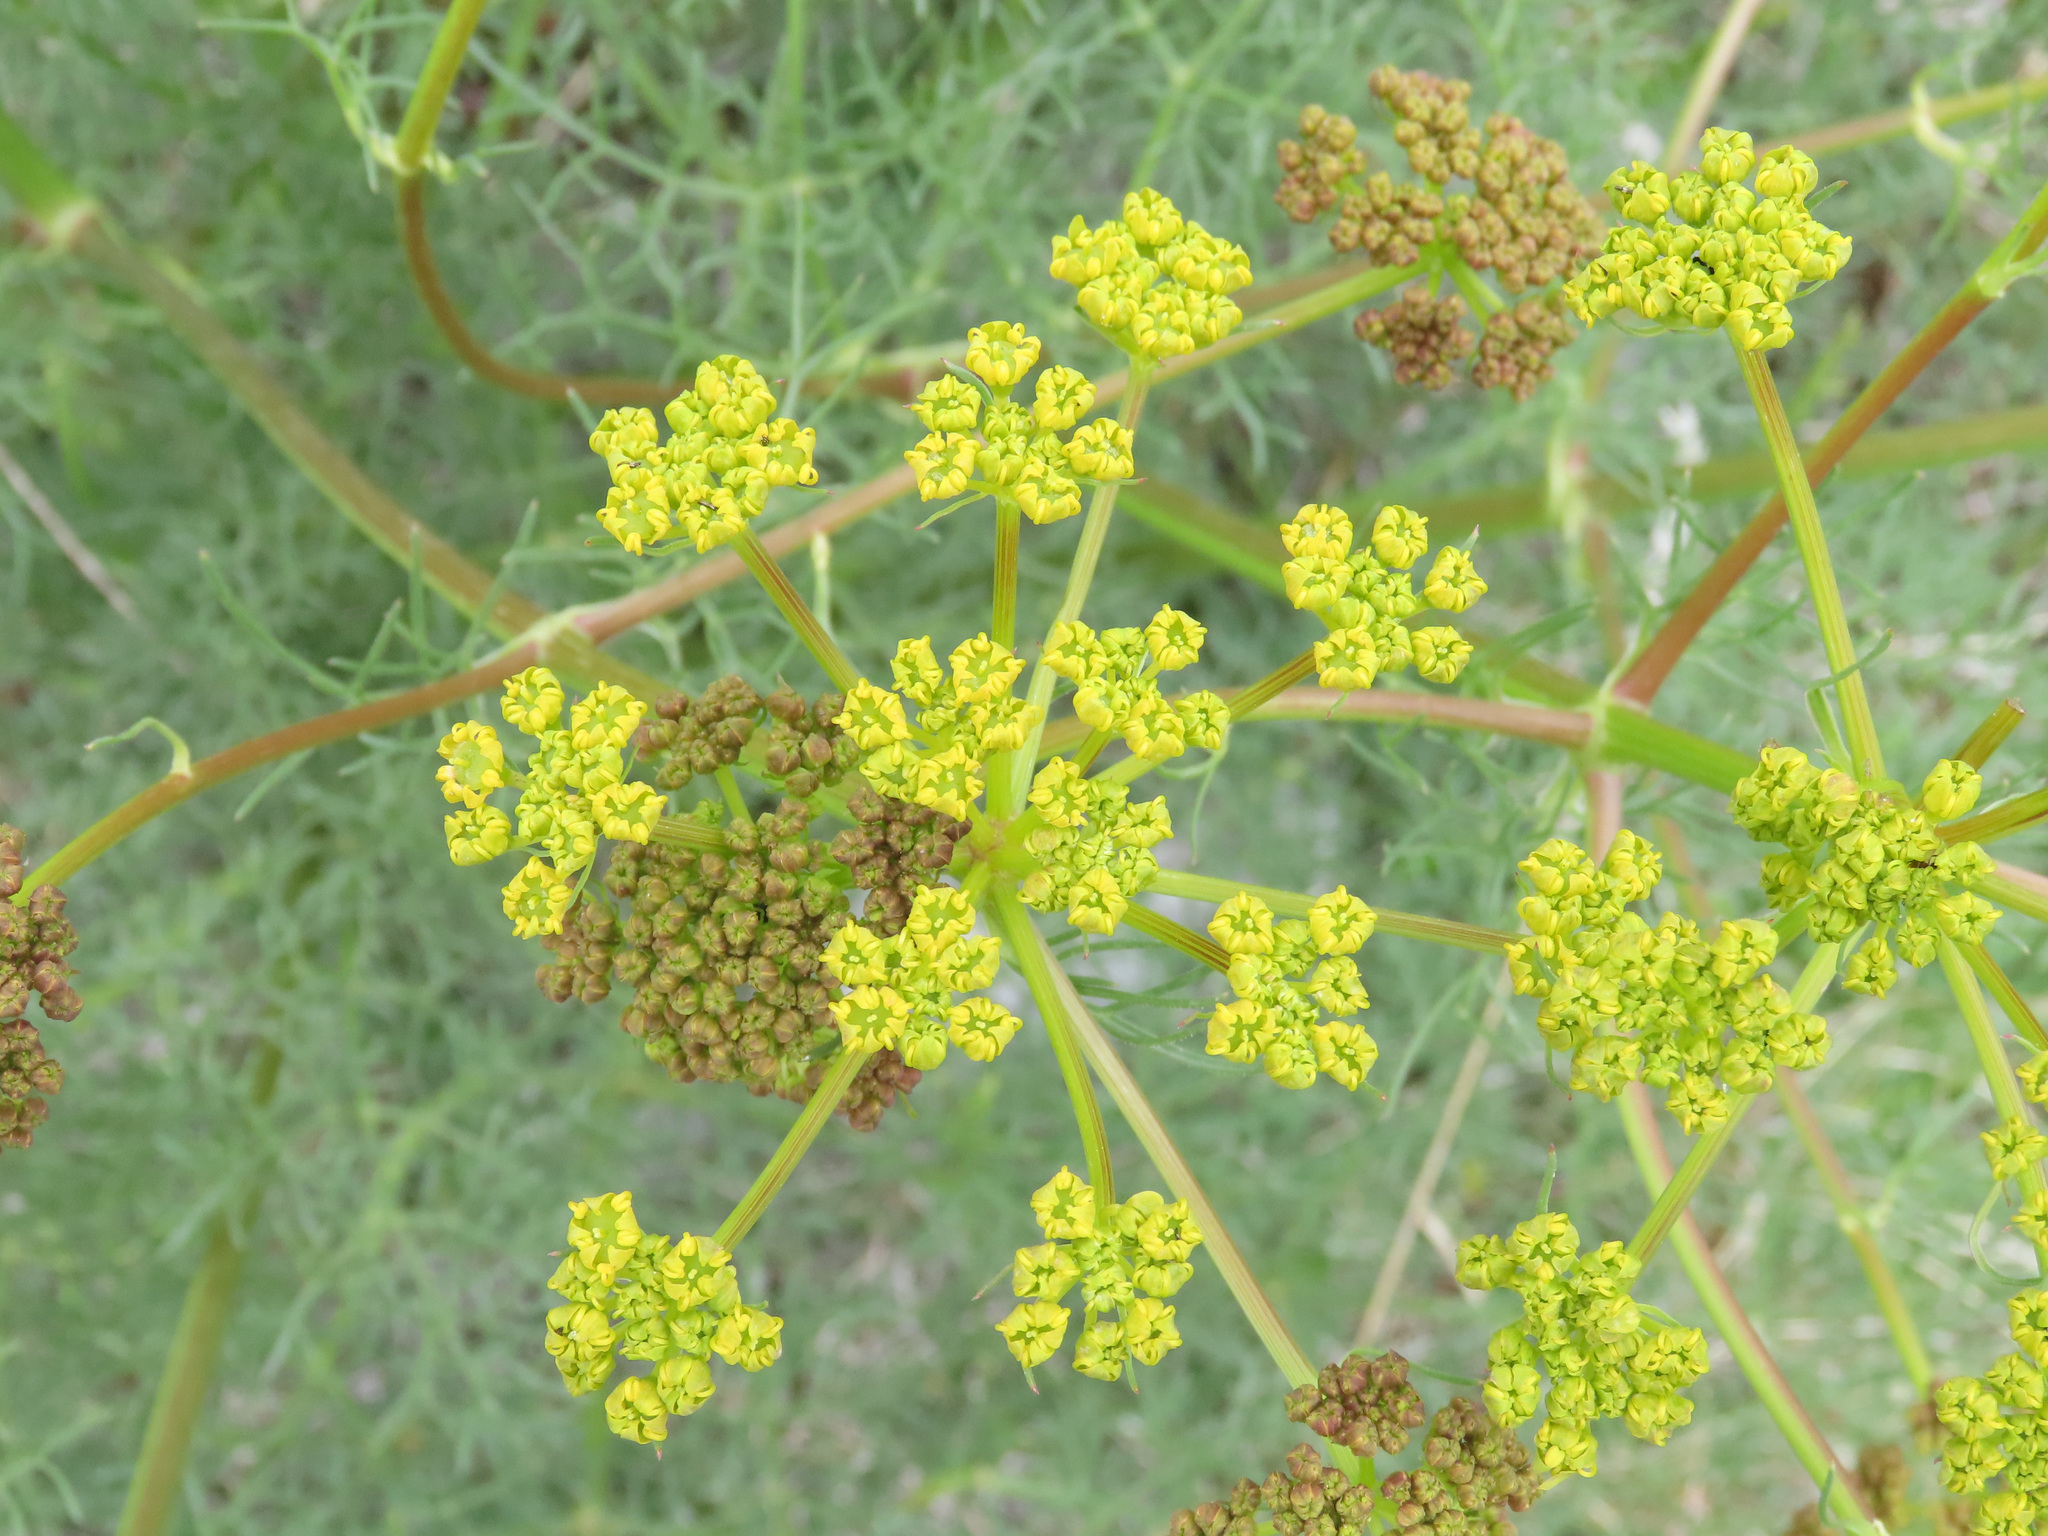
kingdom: Plantae
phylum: Tracheophyta
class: Magnoliopsida
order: Apiales
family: Apiaceae
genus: Prangos
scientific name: Prangos ferulacea
